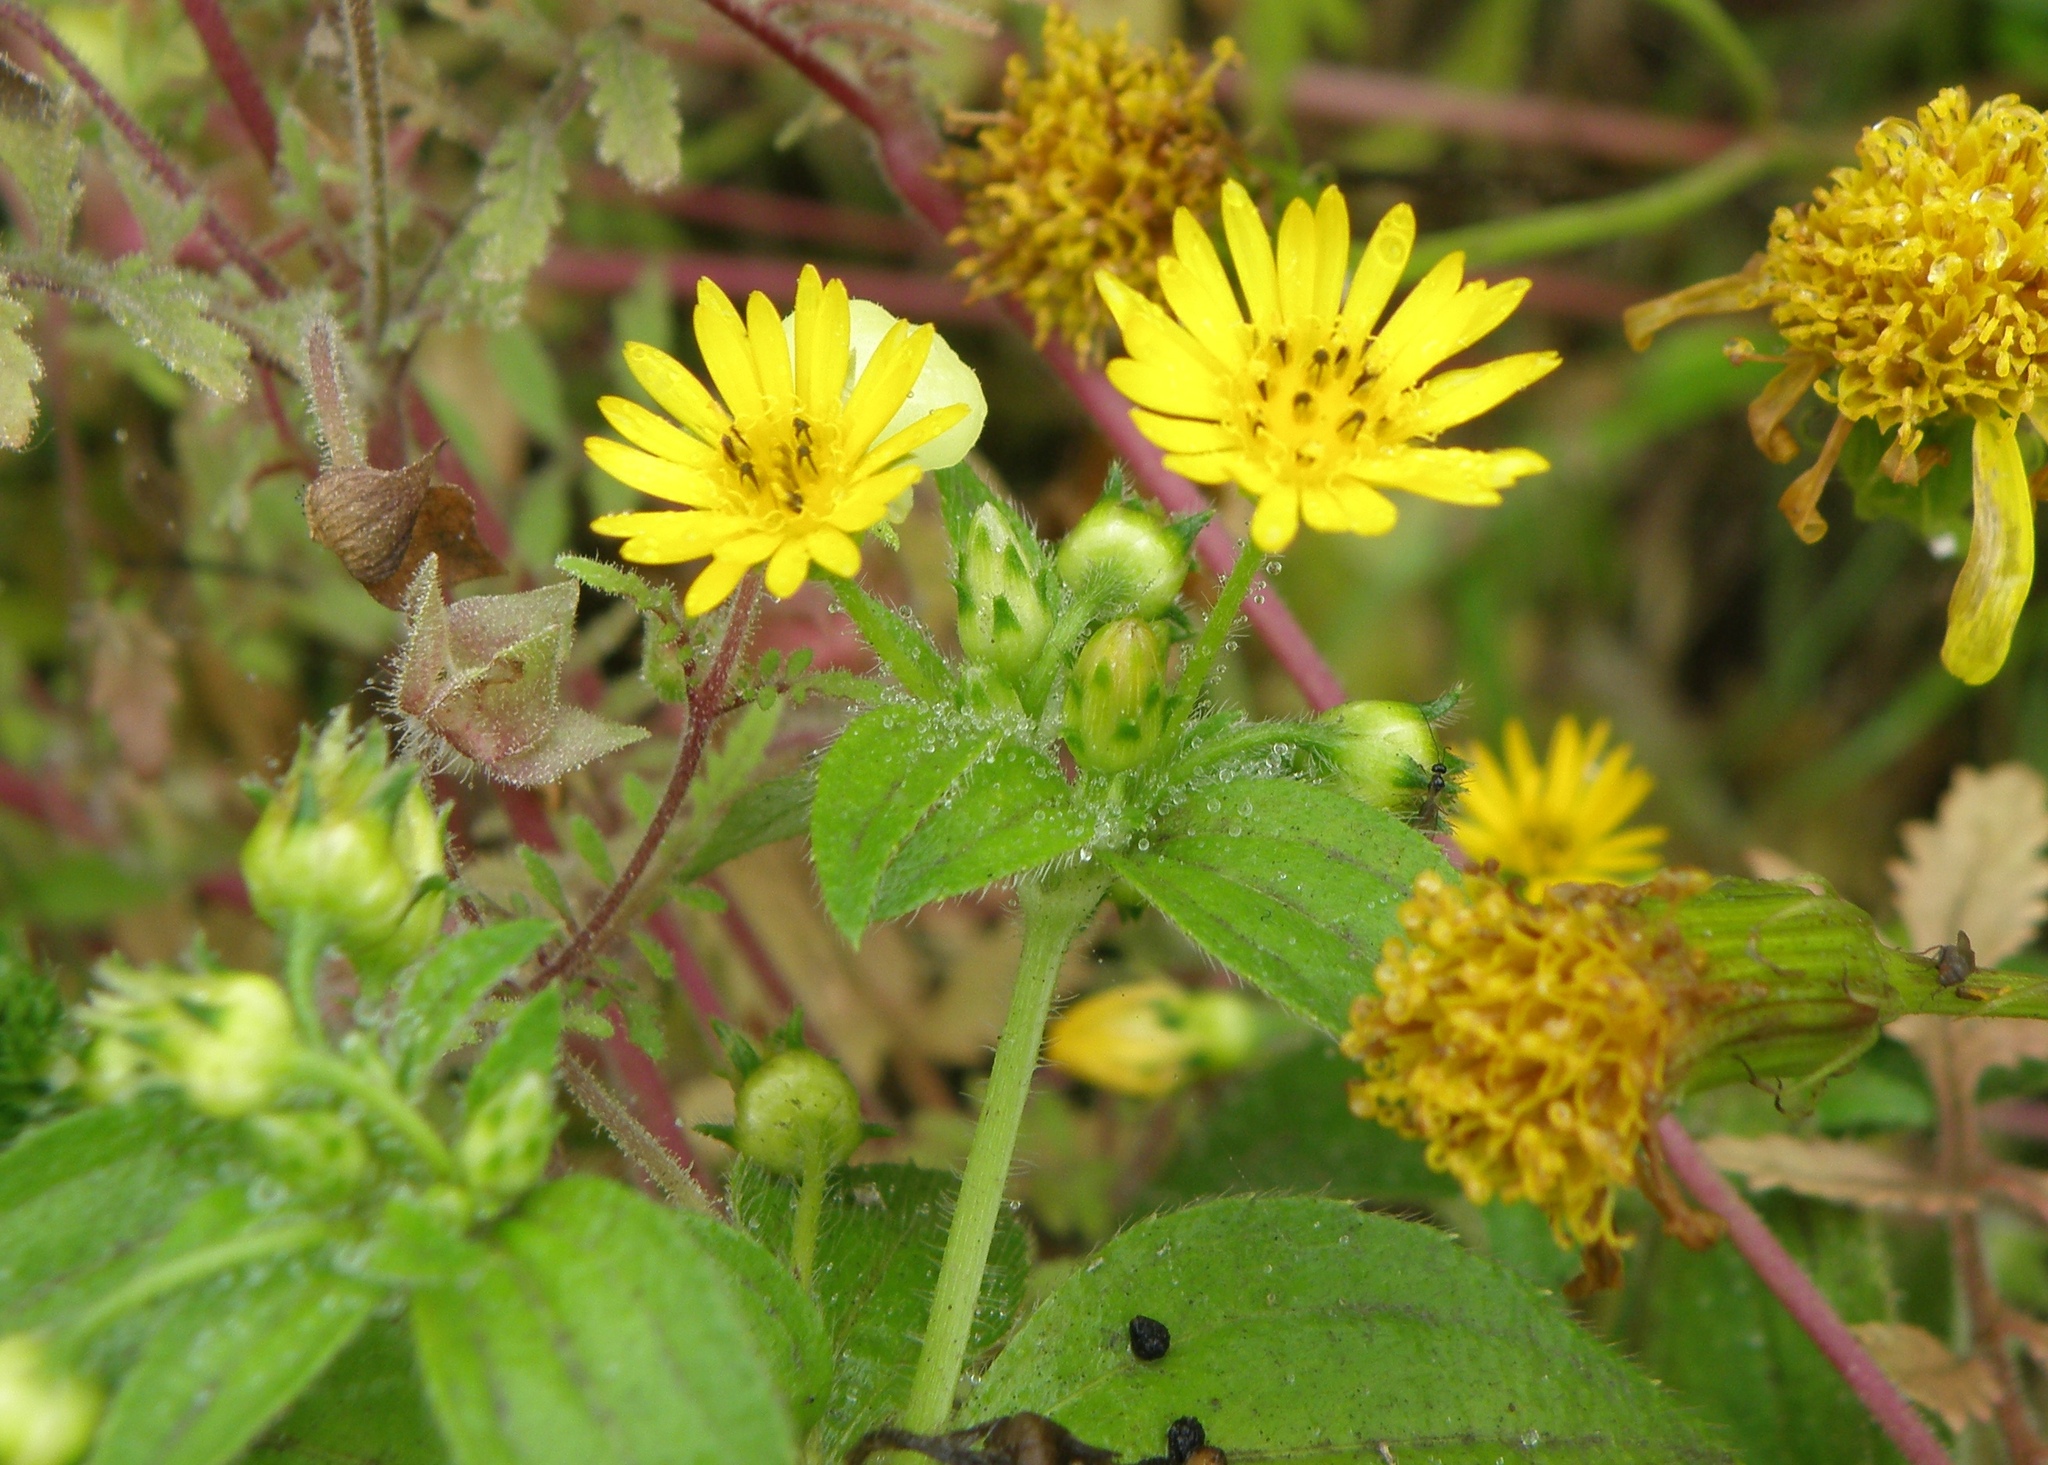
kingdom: Plantae
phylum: Tracheophyta
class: Magnoliopsida
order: Asterales
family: Asteraceae
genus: Philoglossa
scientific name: Philoglossa peruviana
